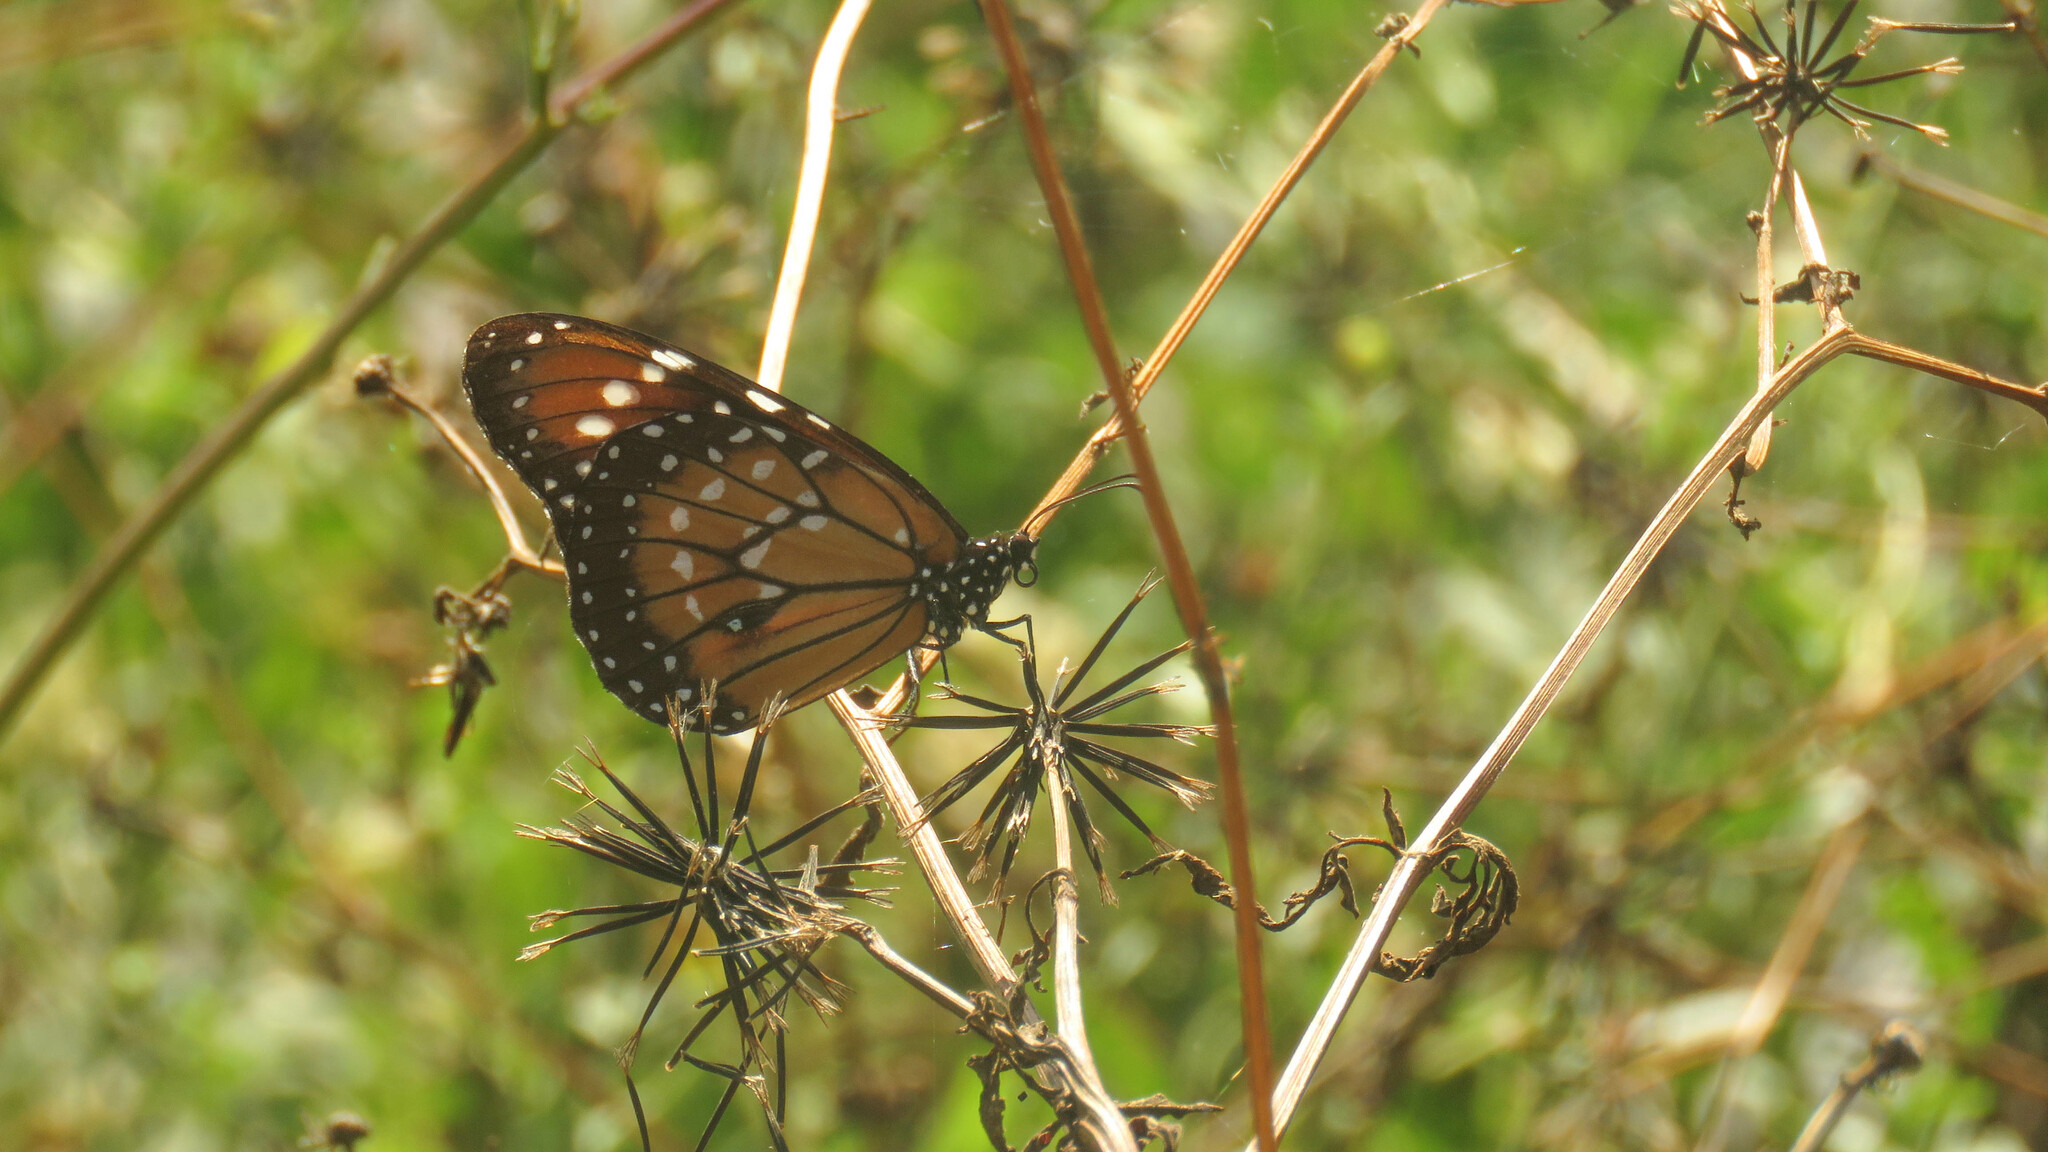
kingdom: Animalia
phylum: Arthropoda
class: Insecta
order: Lepidoptera
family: Nymphalidae
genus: Danaus
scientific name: Danaus eresimus
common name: Soldier
